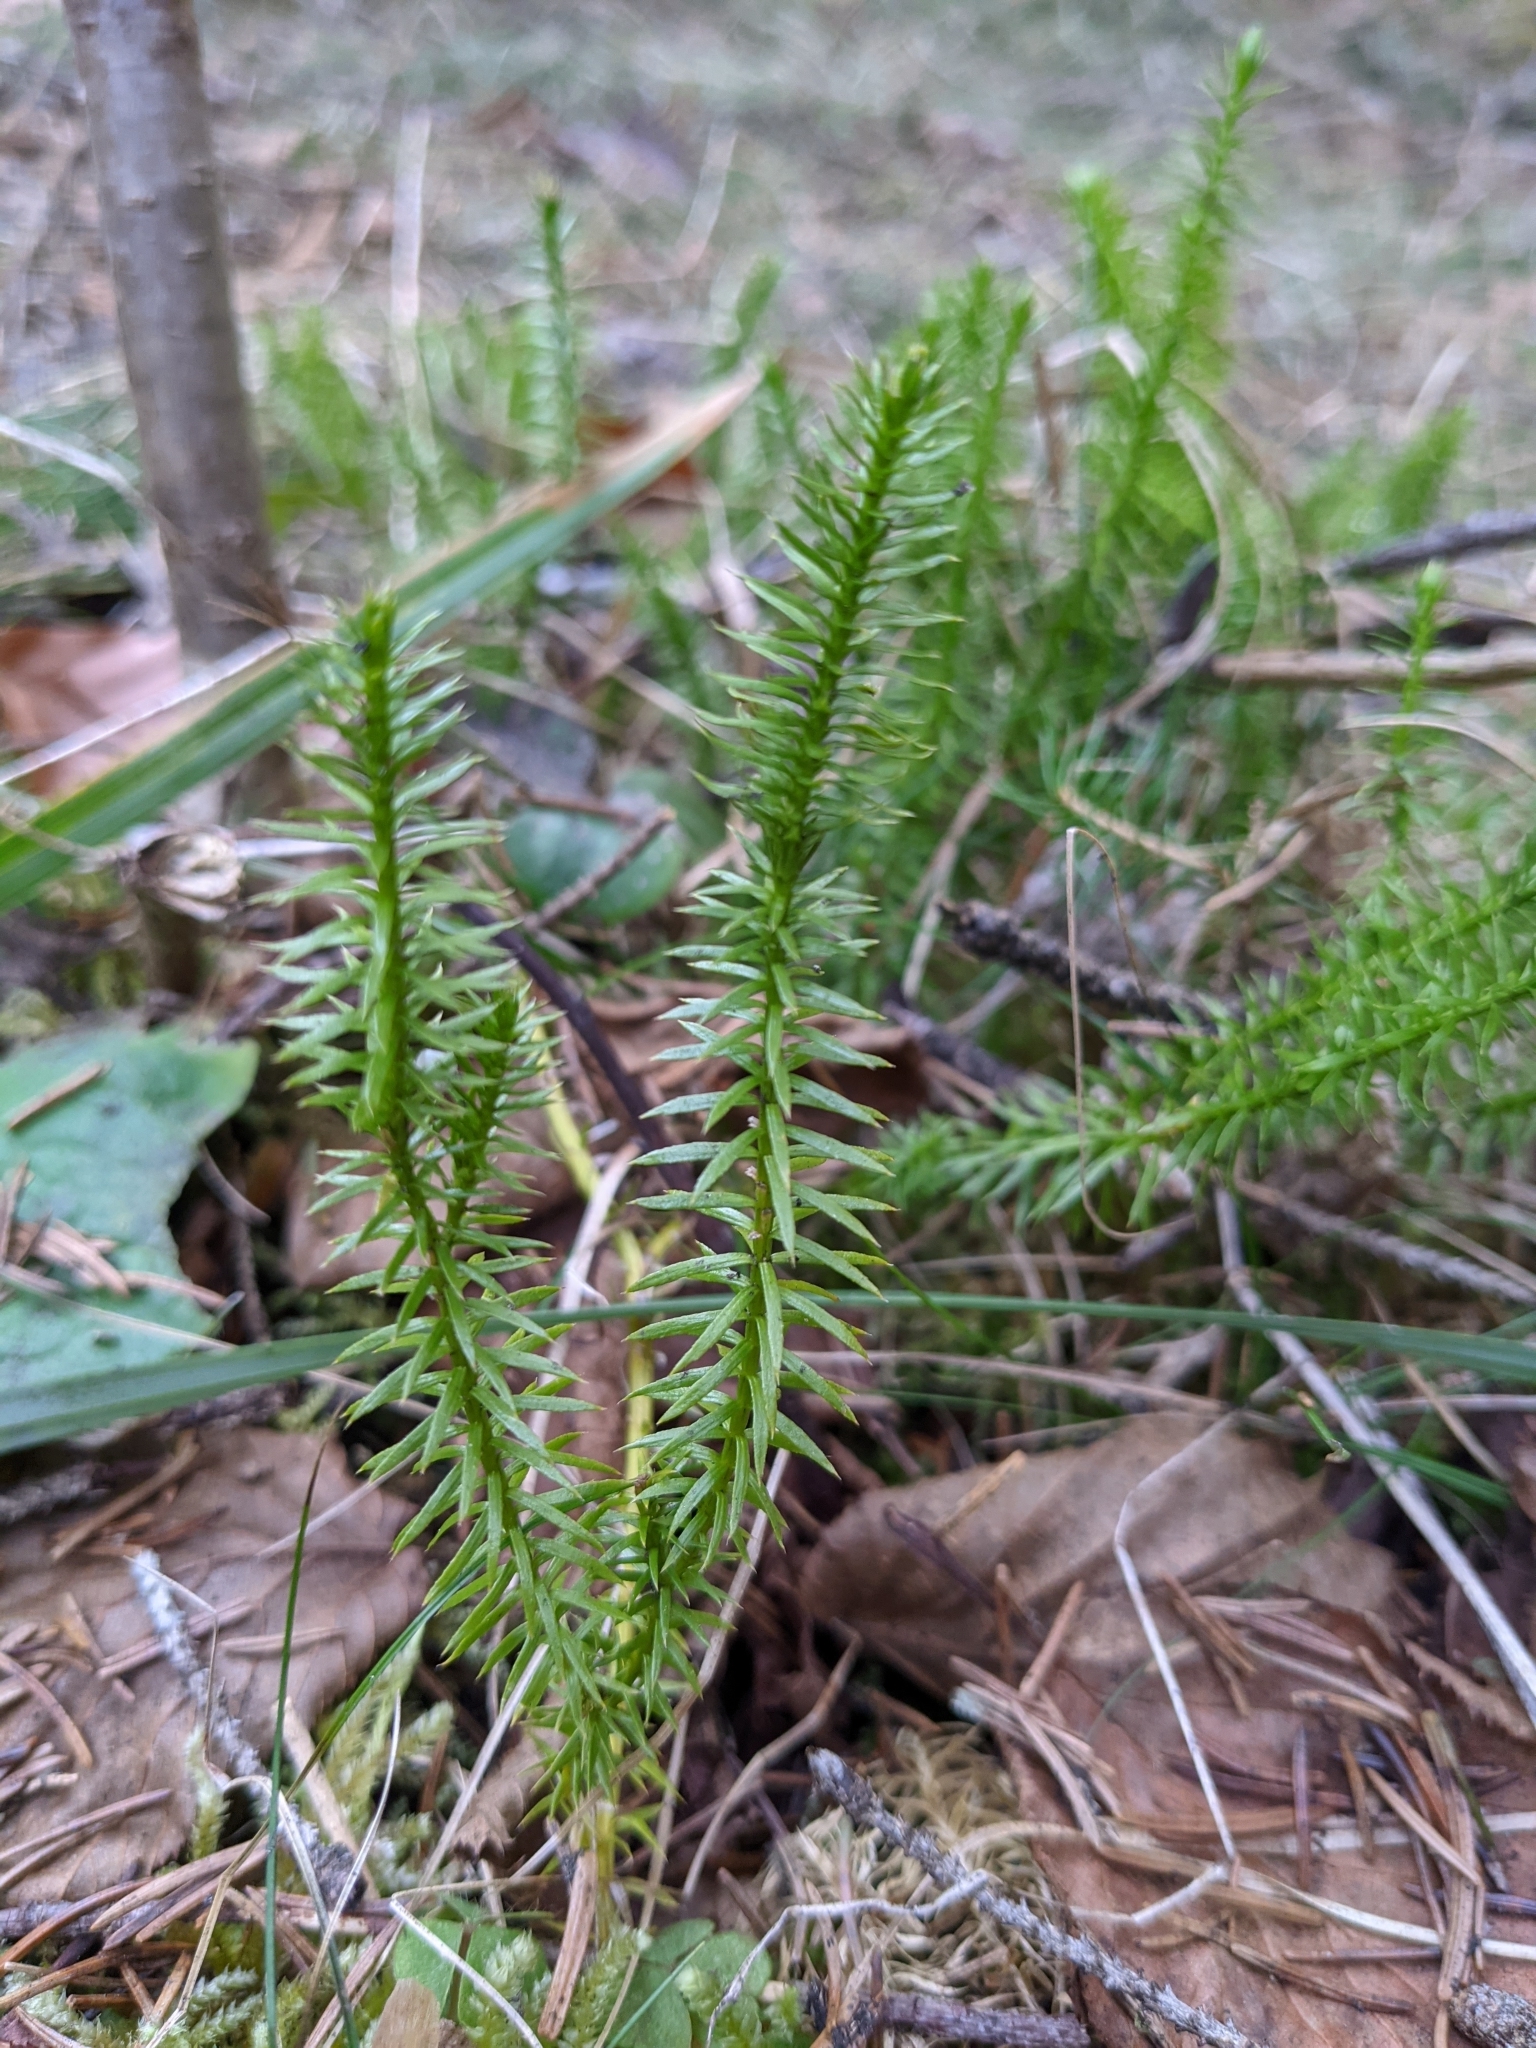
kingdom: Plantae
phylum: Tracheophyta
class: Lycopodiopsida
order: Lycopodiales
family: Lycopodiaceae
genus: Spinulum
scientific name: Spinulum annotinum
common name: Interrupted club-moss
